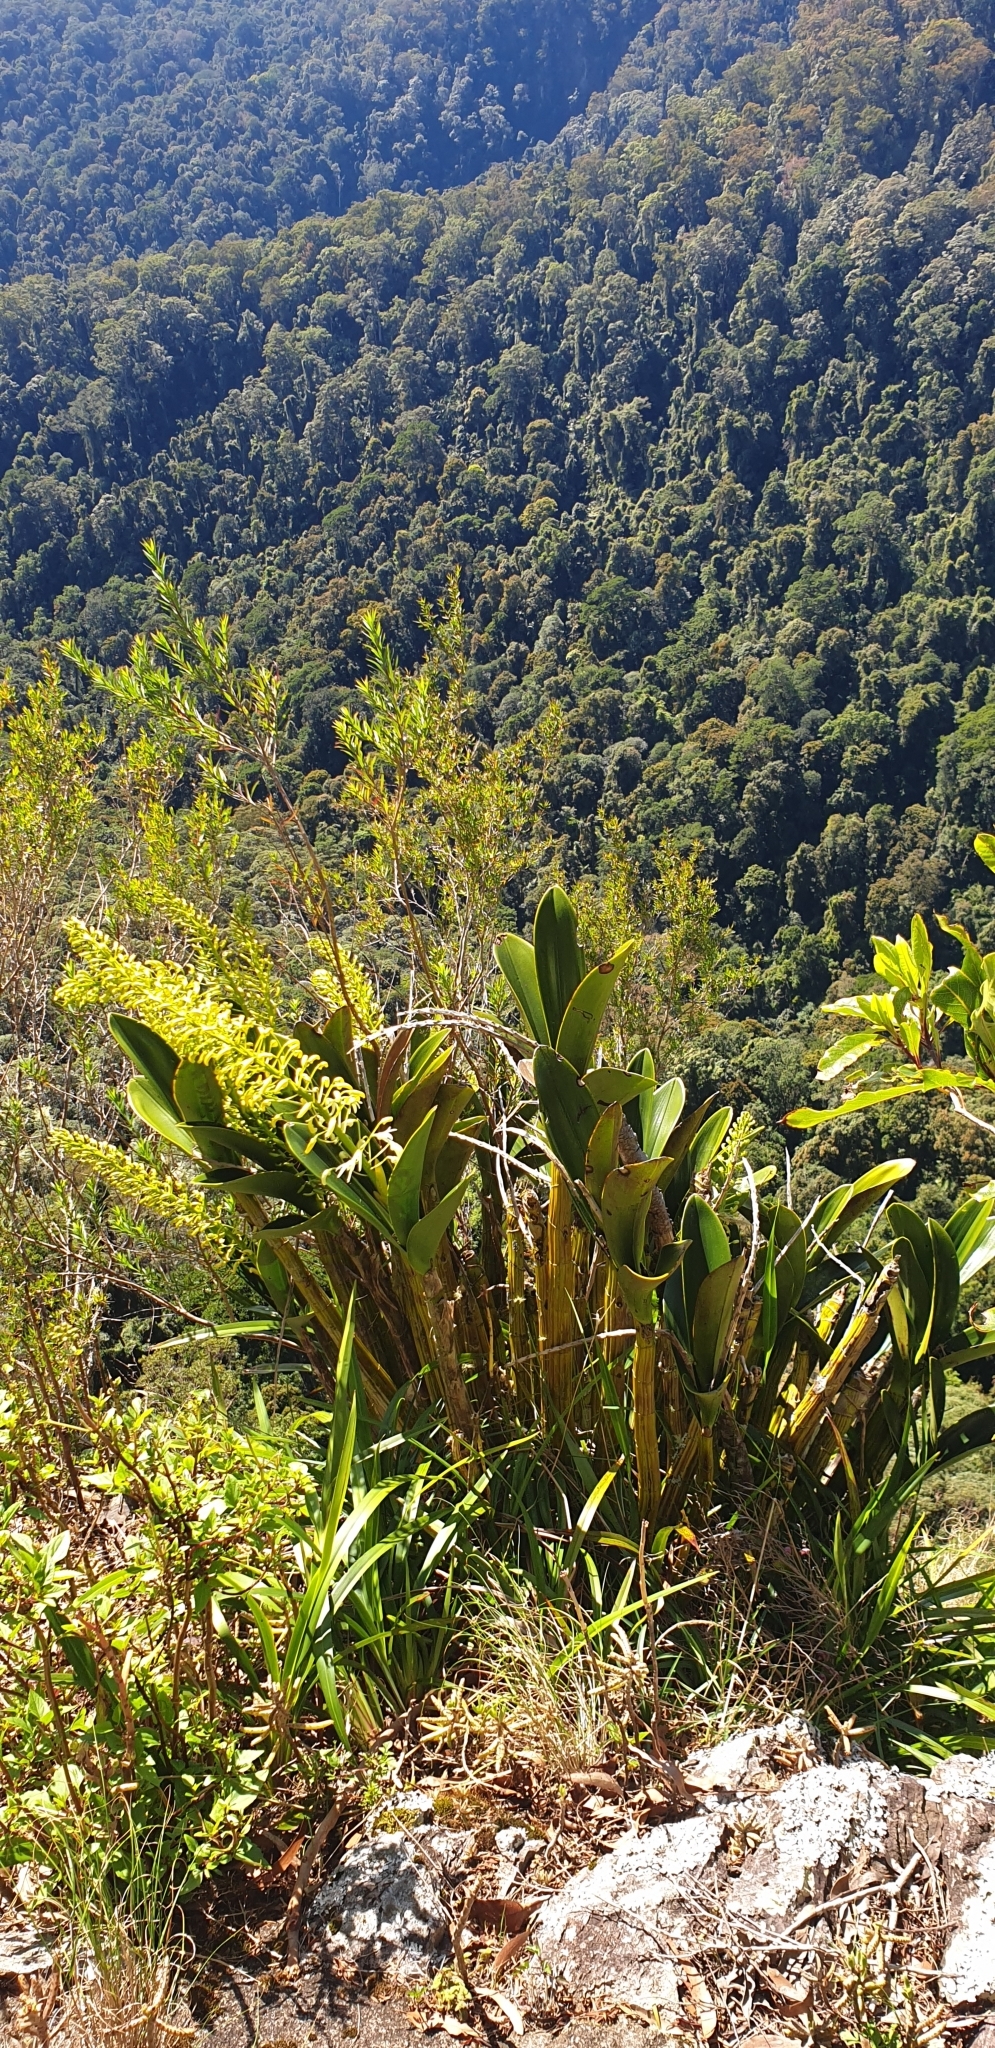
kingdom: Plantae
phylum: Tracheophyta
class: Liliopsida
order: Asparagales
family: Orchidaceae
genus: Dendrobium
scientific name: Dendrobium speciosum
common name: Rock-lily
